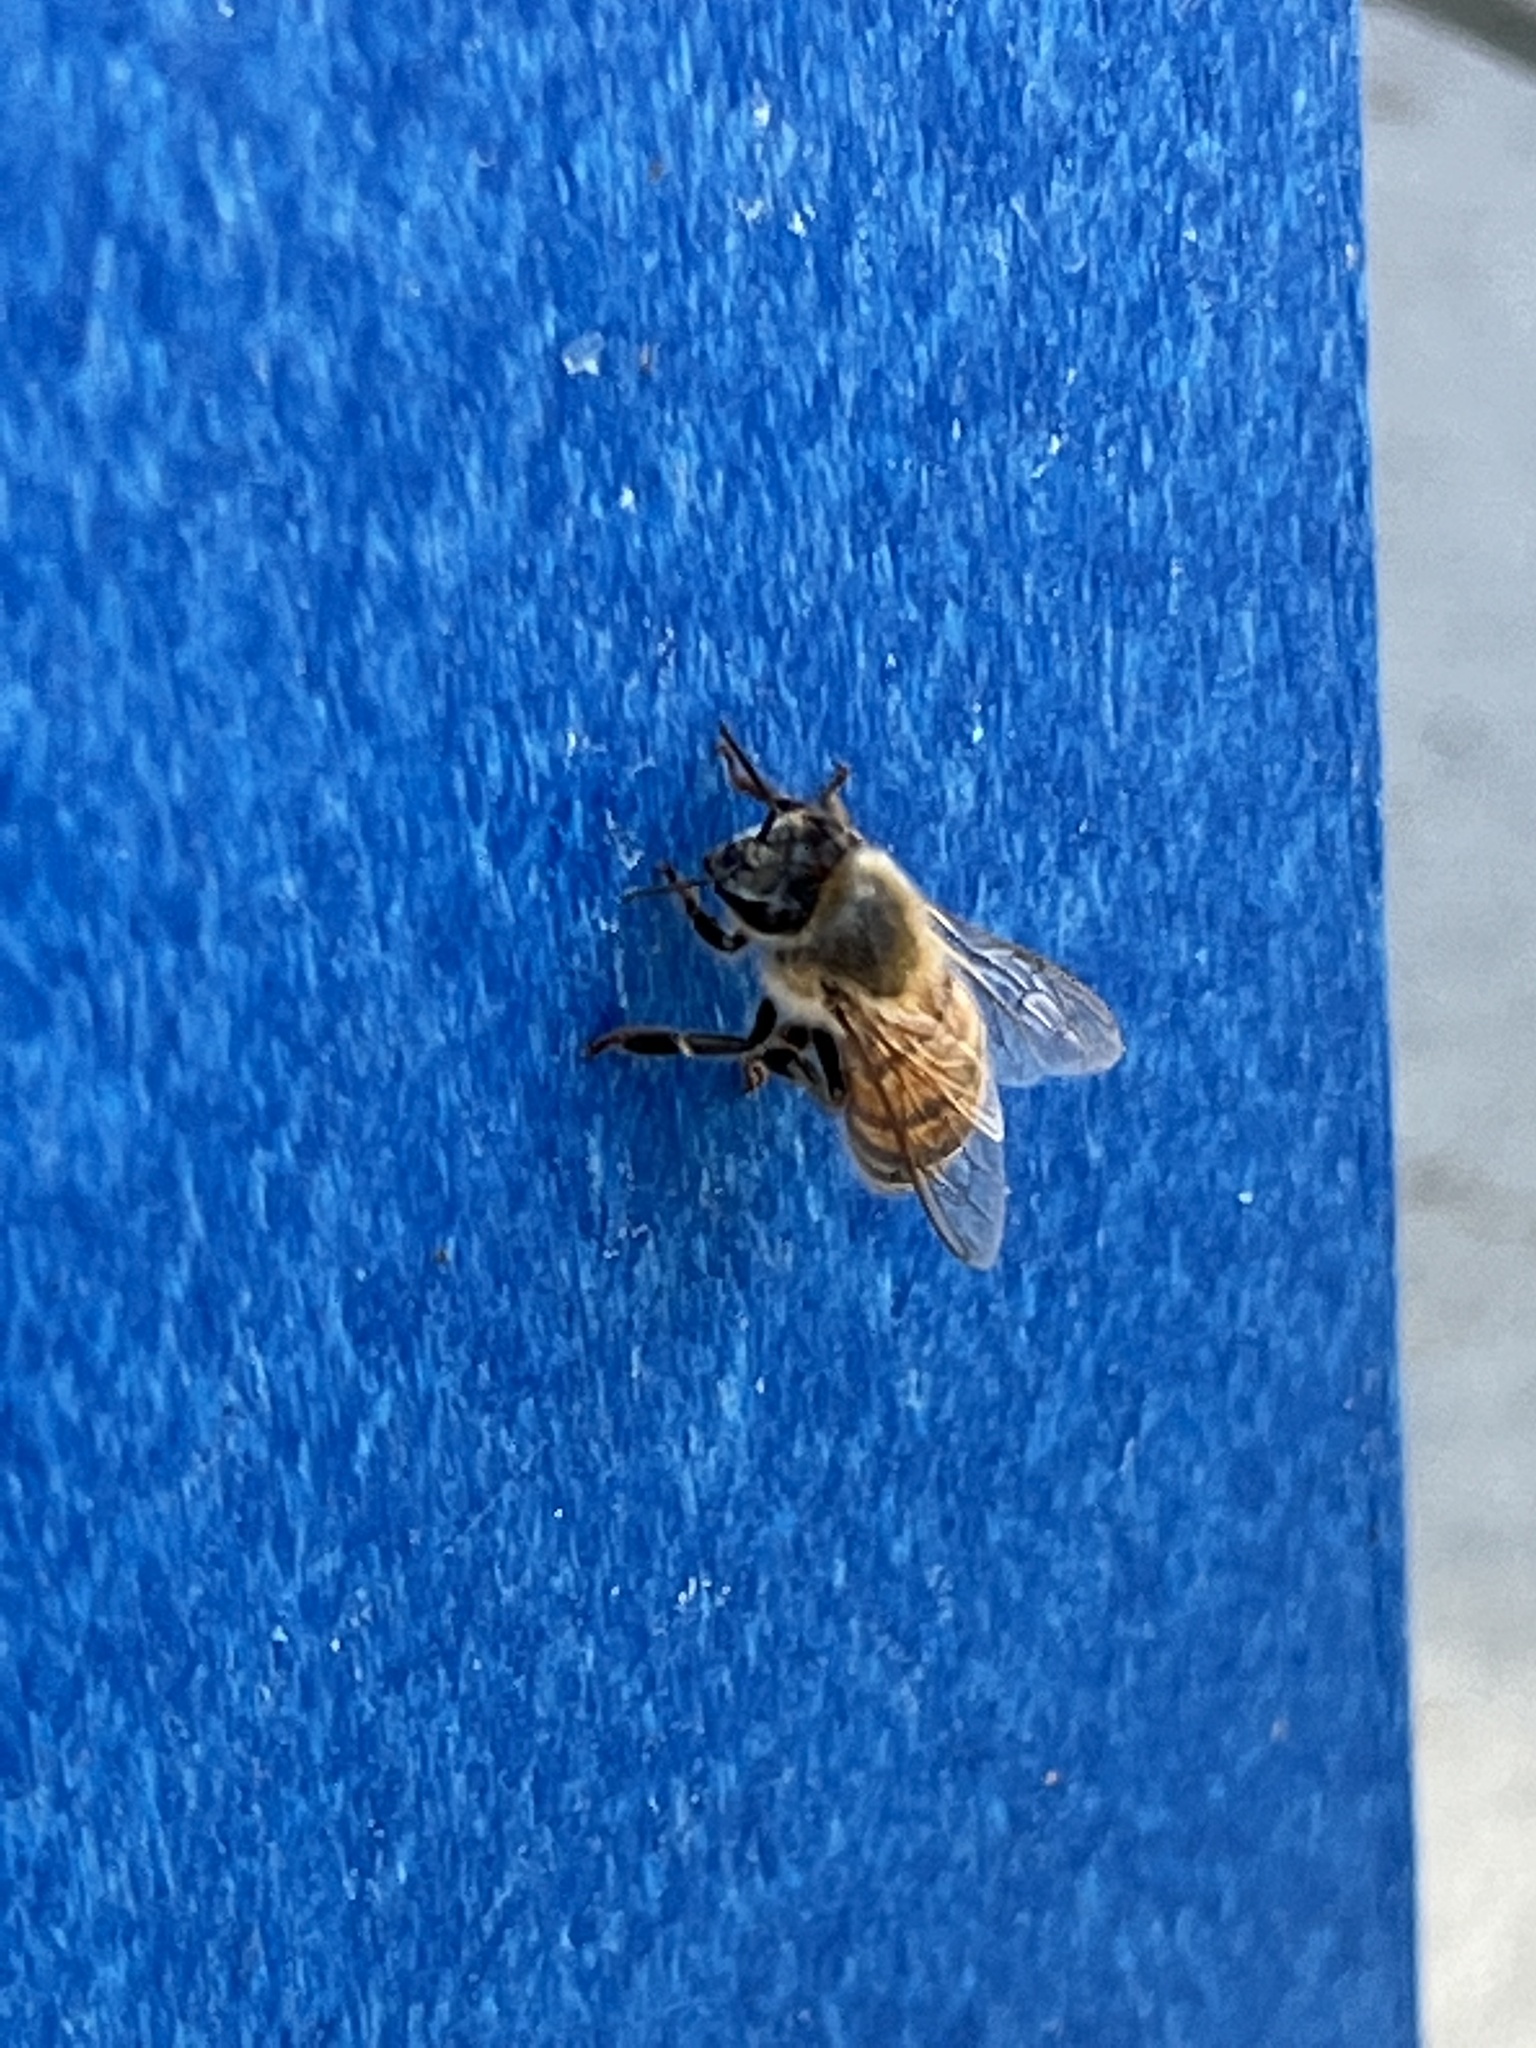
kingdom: Animalia
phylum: Arthropoda
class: Insecta
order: Hymenoptera
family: Apidae
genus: Apis
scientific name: Apis mellifera
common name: Honey bee
